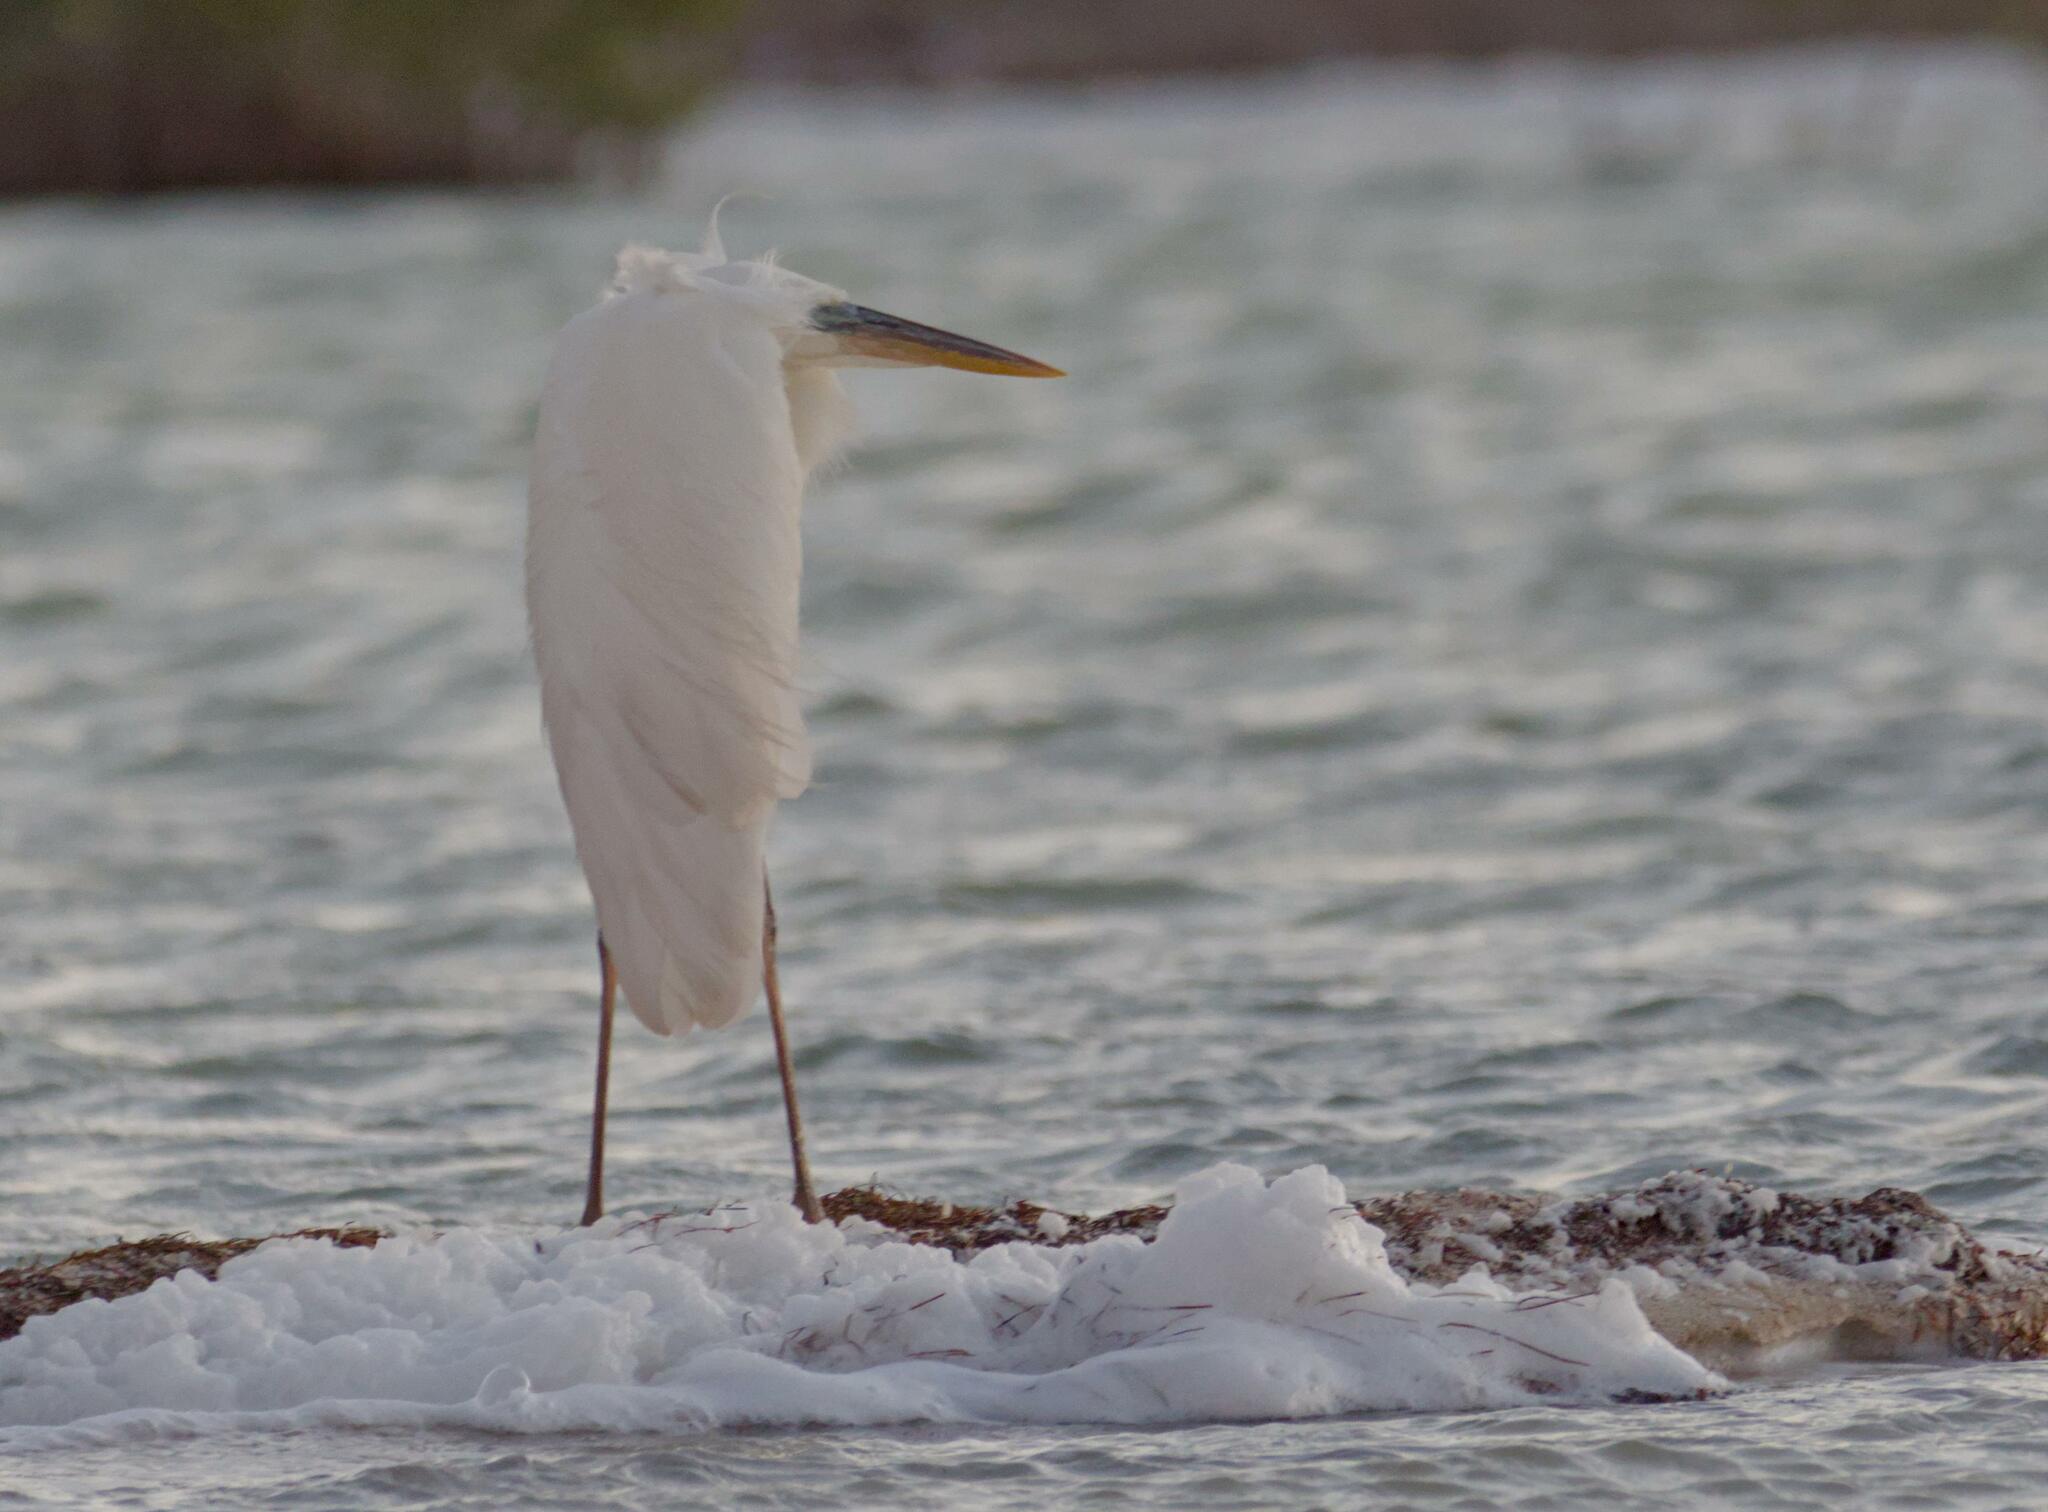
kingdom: Animalia
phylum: Chordata
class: Aves
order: Pelecaniformes
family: Ardeidae
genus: Ardea
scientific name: Ardea herodias
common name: Great blue heron
